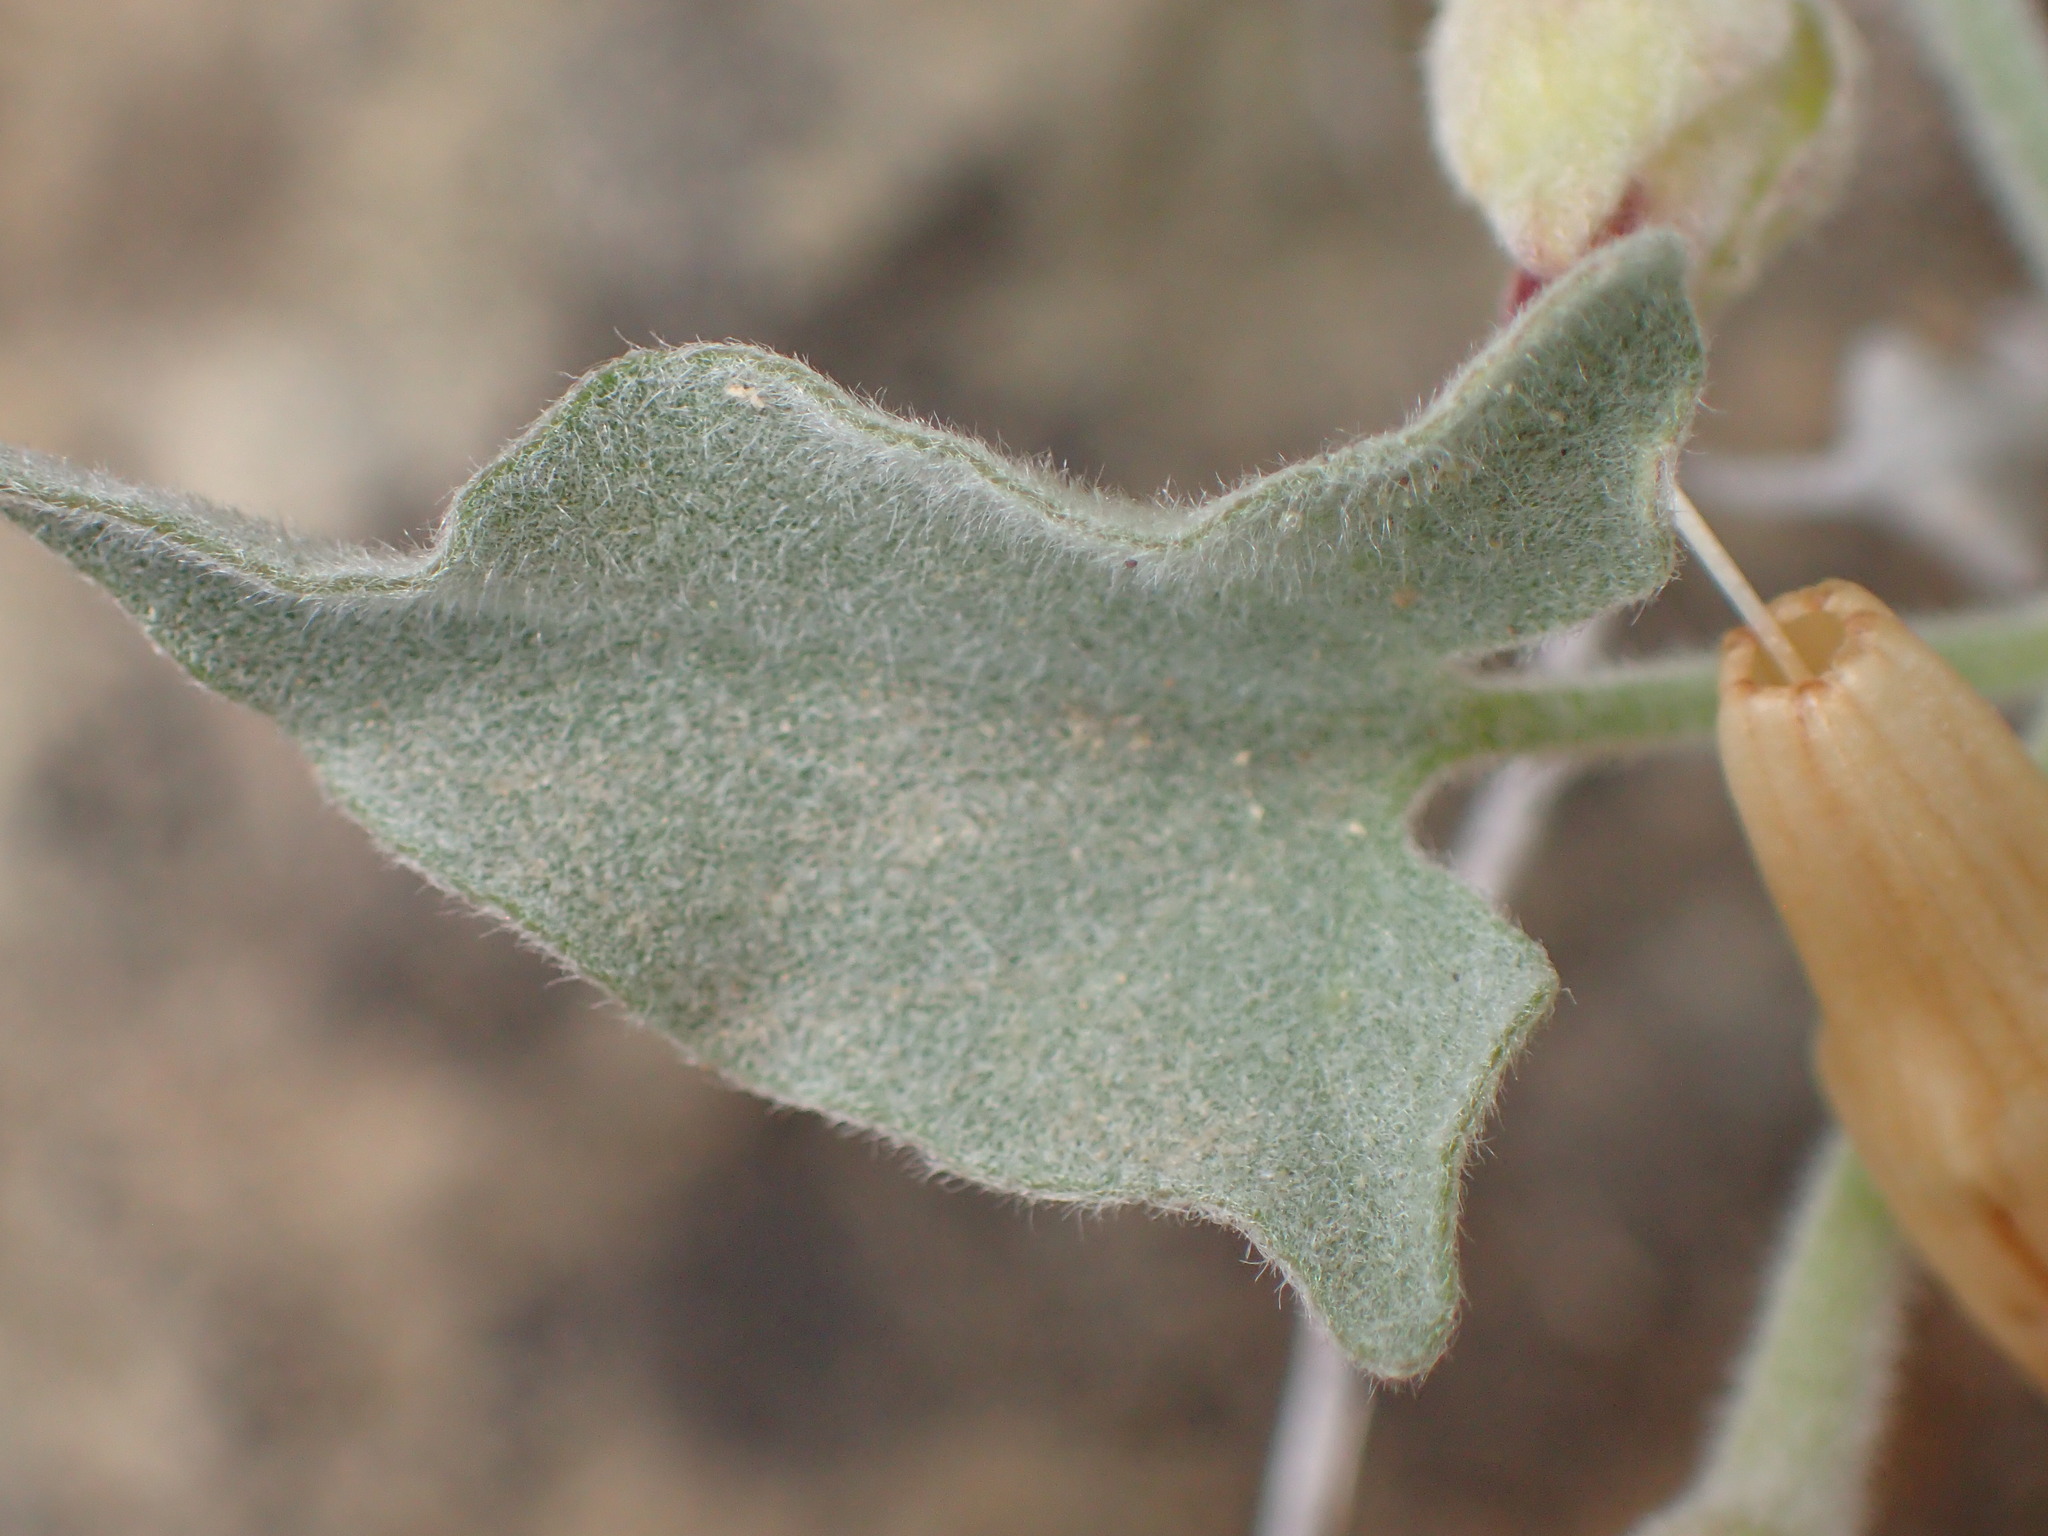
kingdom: Plantae
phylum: Tracheophyta
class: Magnoliopsida
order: Solanales
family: Convolvulaceae
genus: Calystegia
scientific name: Calystegia malacophylla
